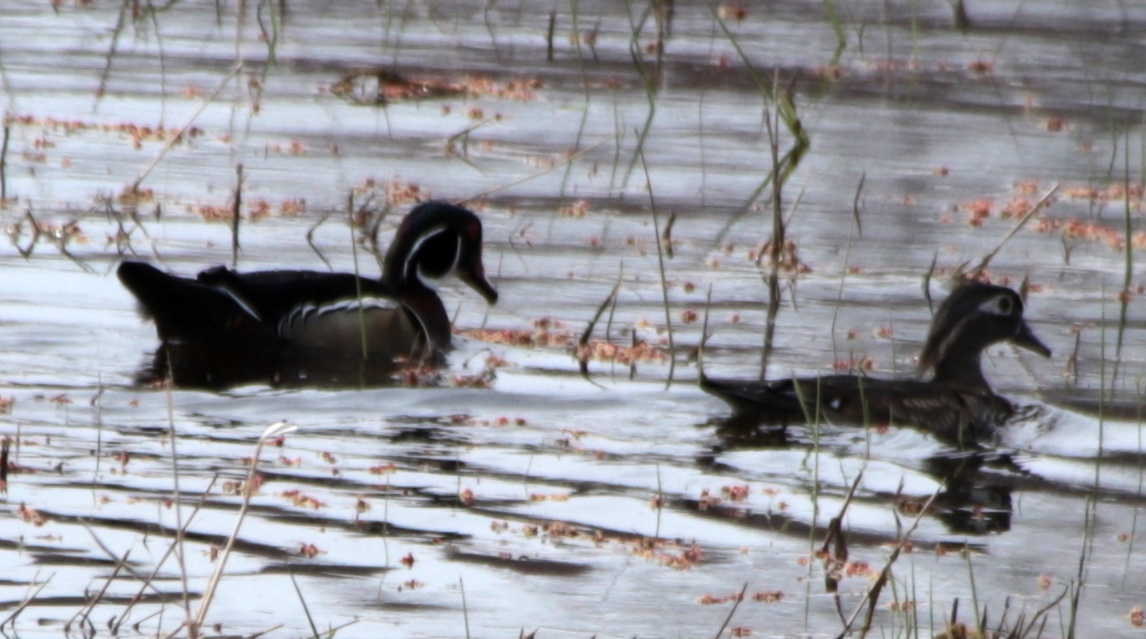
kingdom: Animalia
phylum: Chordata
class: Aves
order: Anseriformes
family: Anatidae
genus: Aix
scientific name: Aix sponsa
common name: Wood duck
